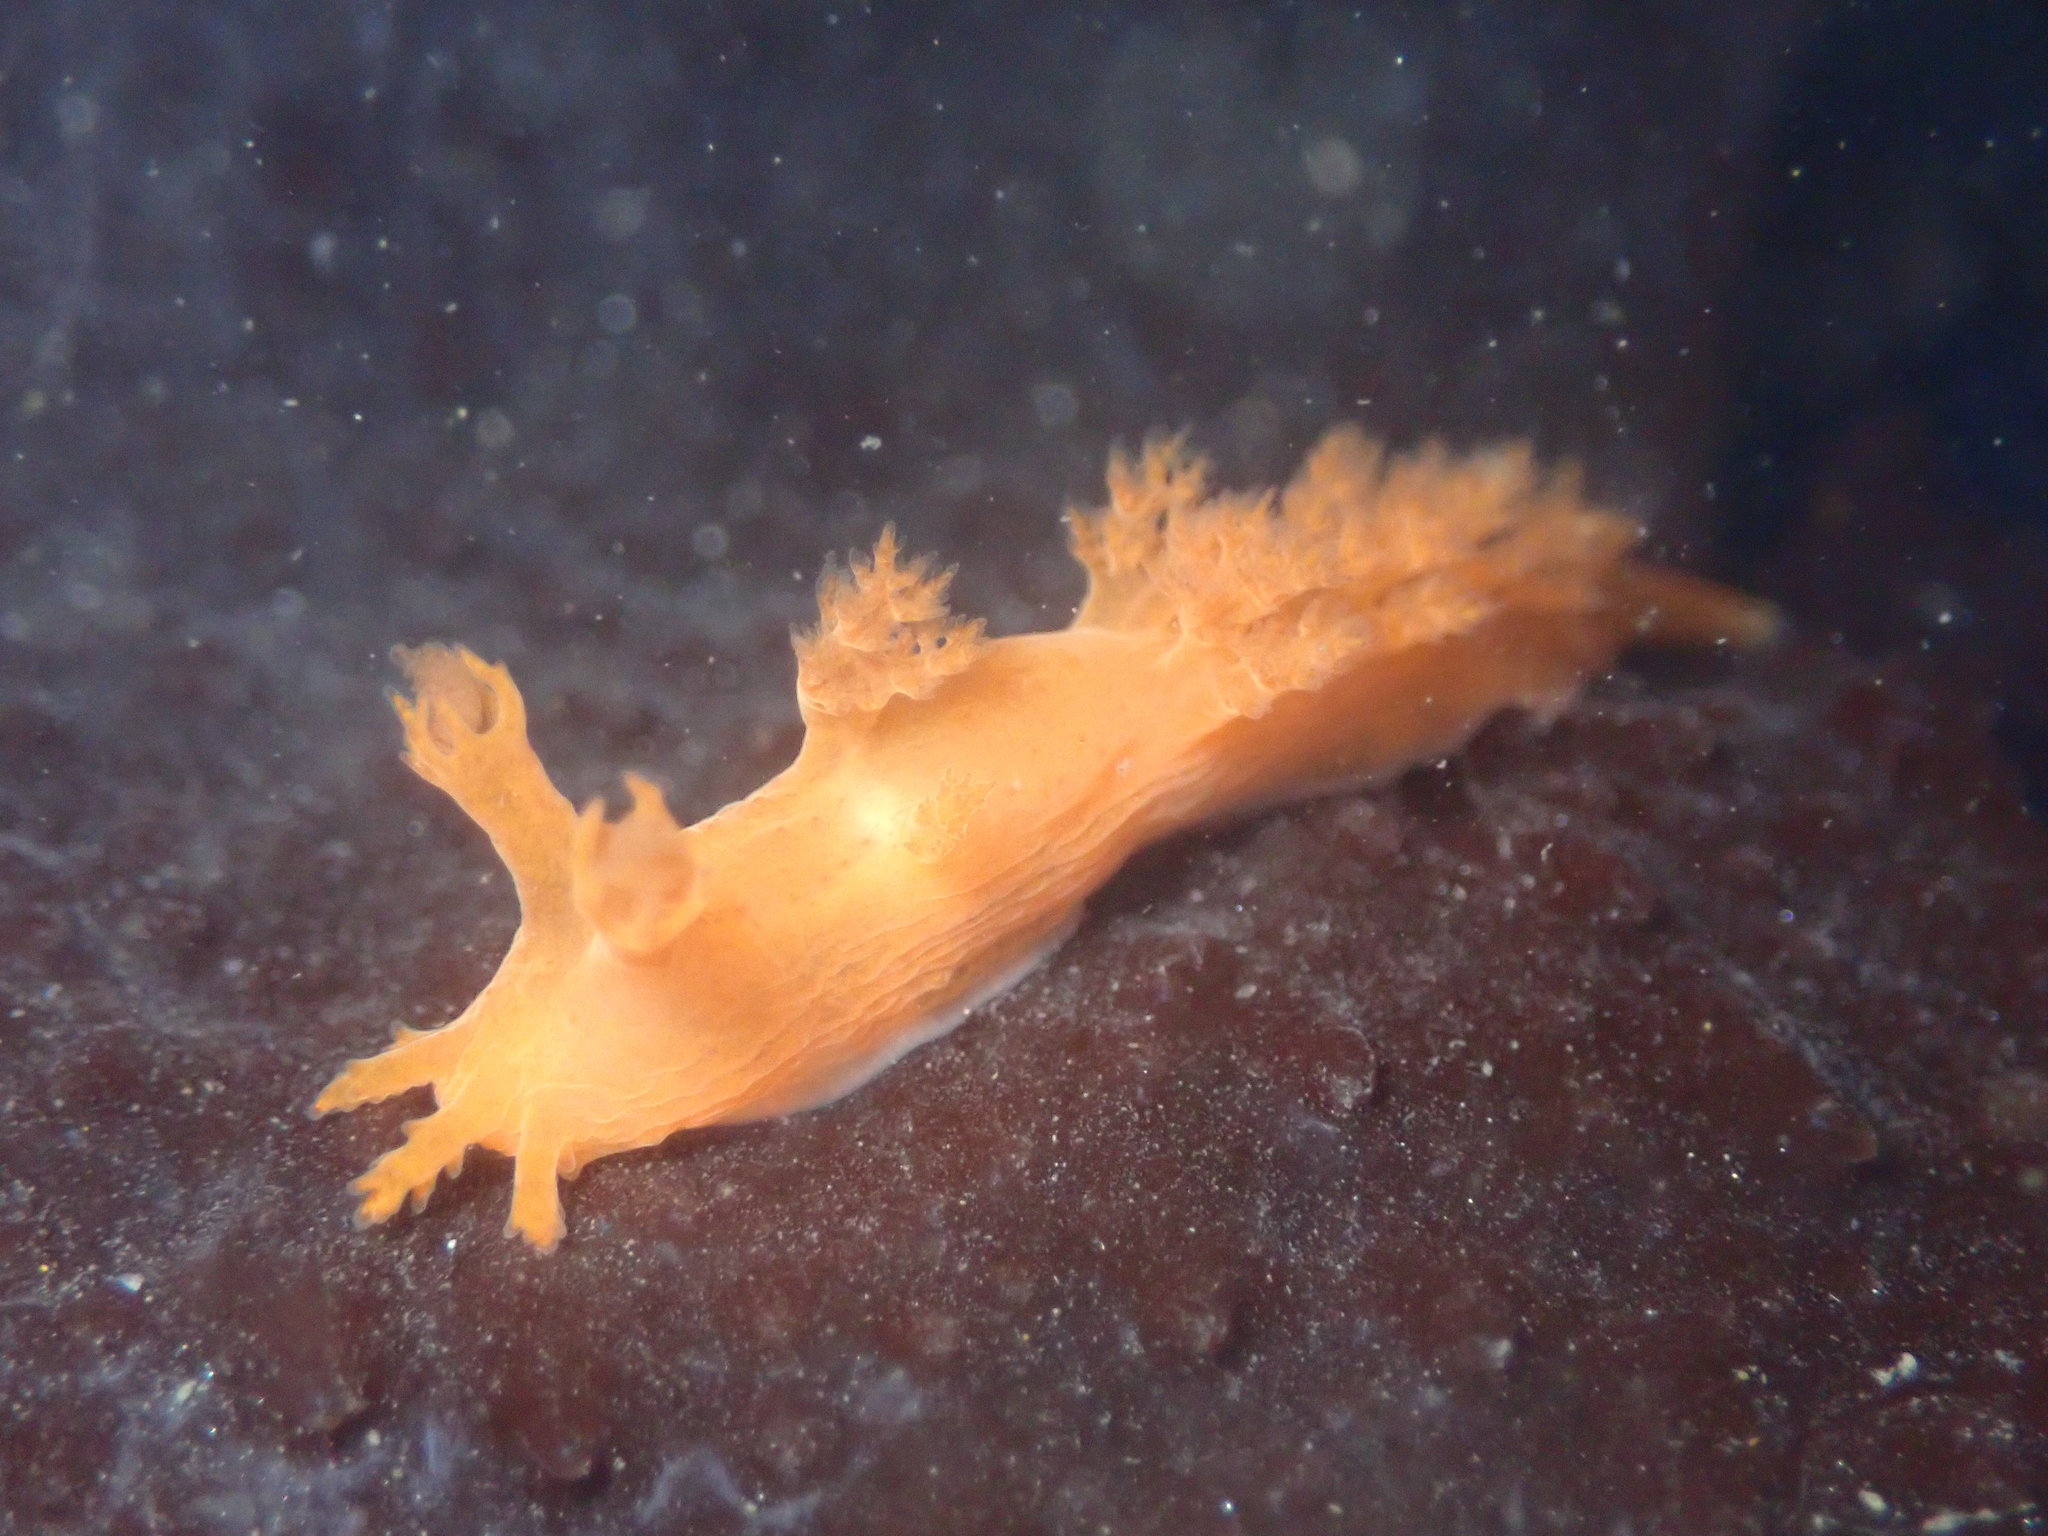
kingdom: Animalia
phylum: Mollusca
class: Gastropoda
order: Nudibranchia
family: Dendronotidae
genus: Dendronotus
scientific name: Dendronotus subramosus
